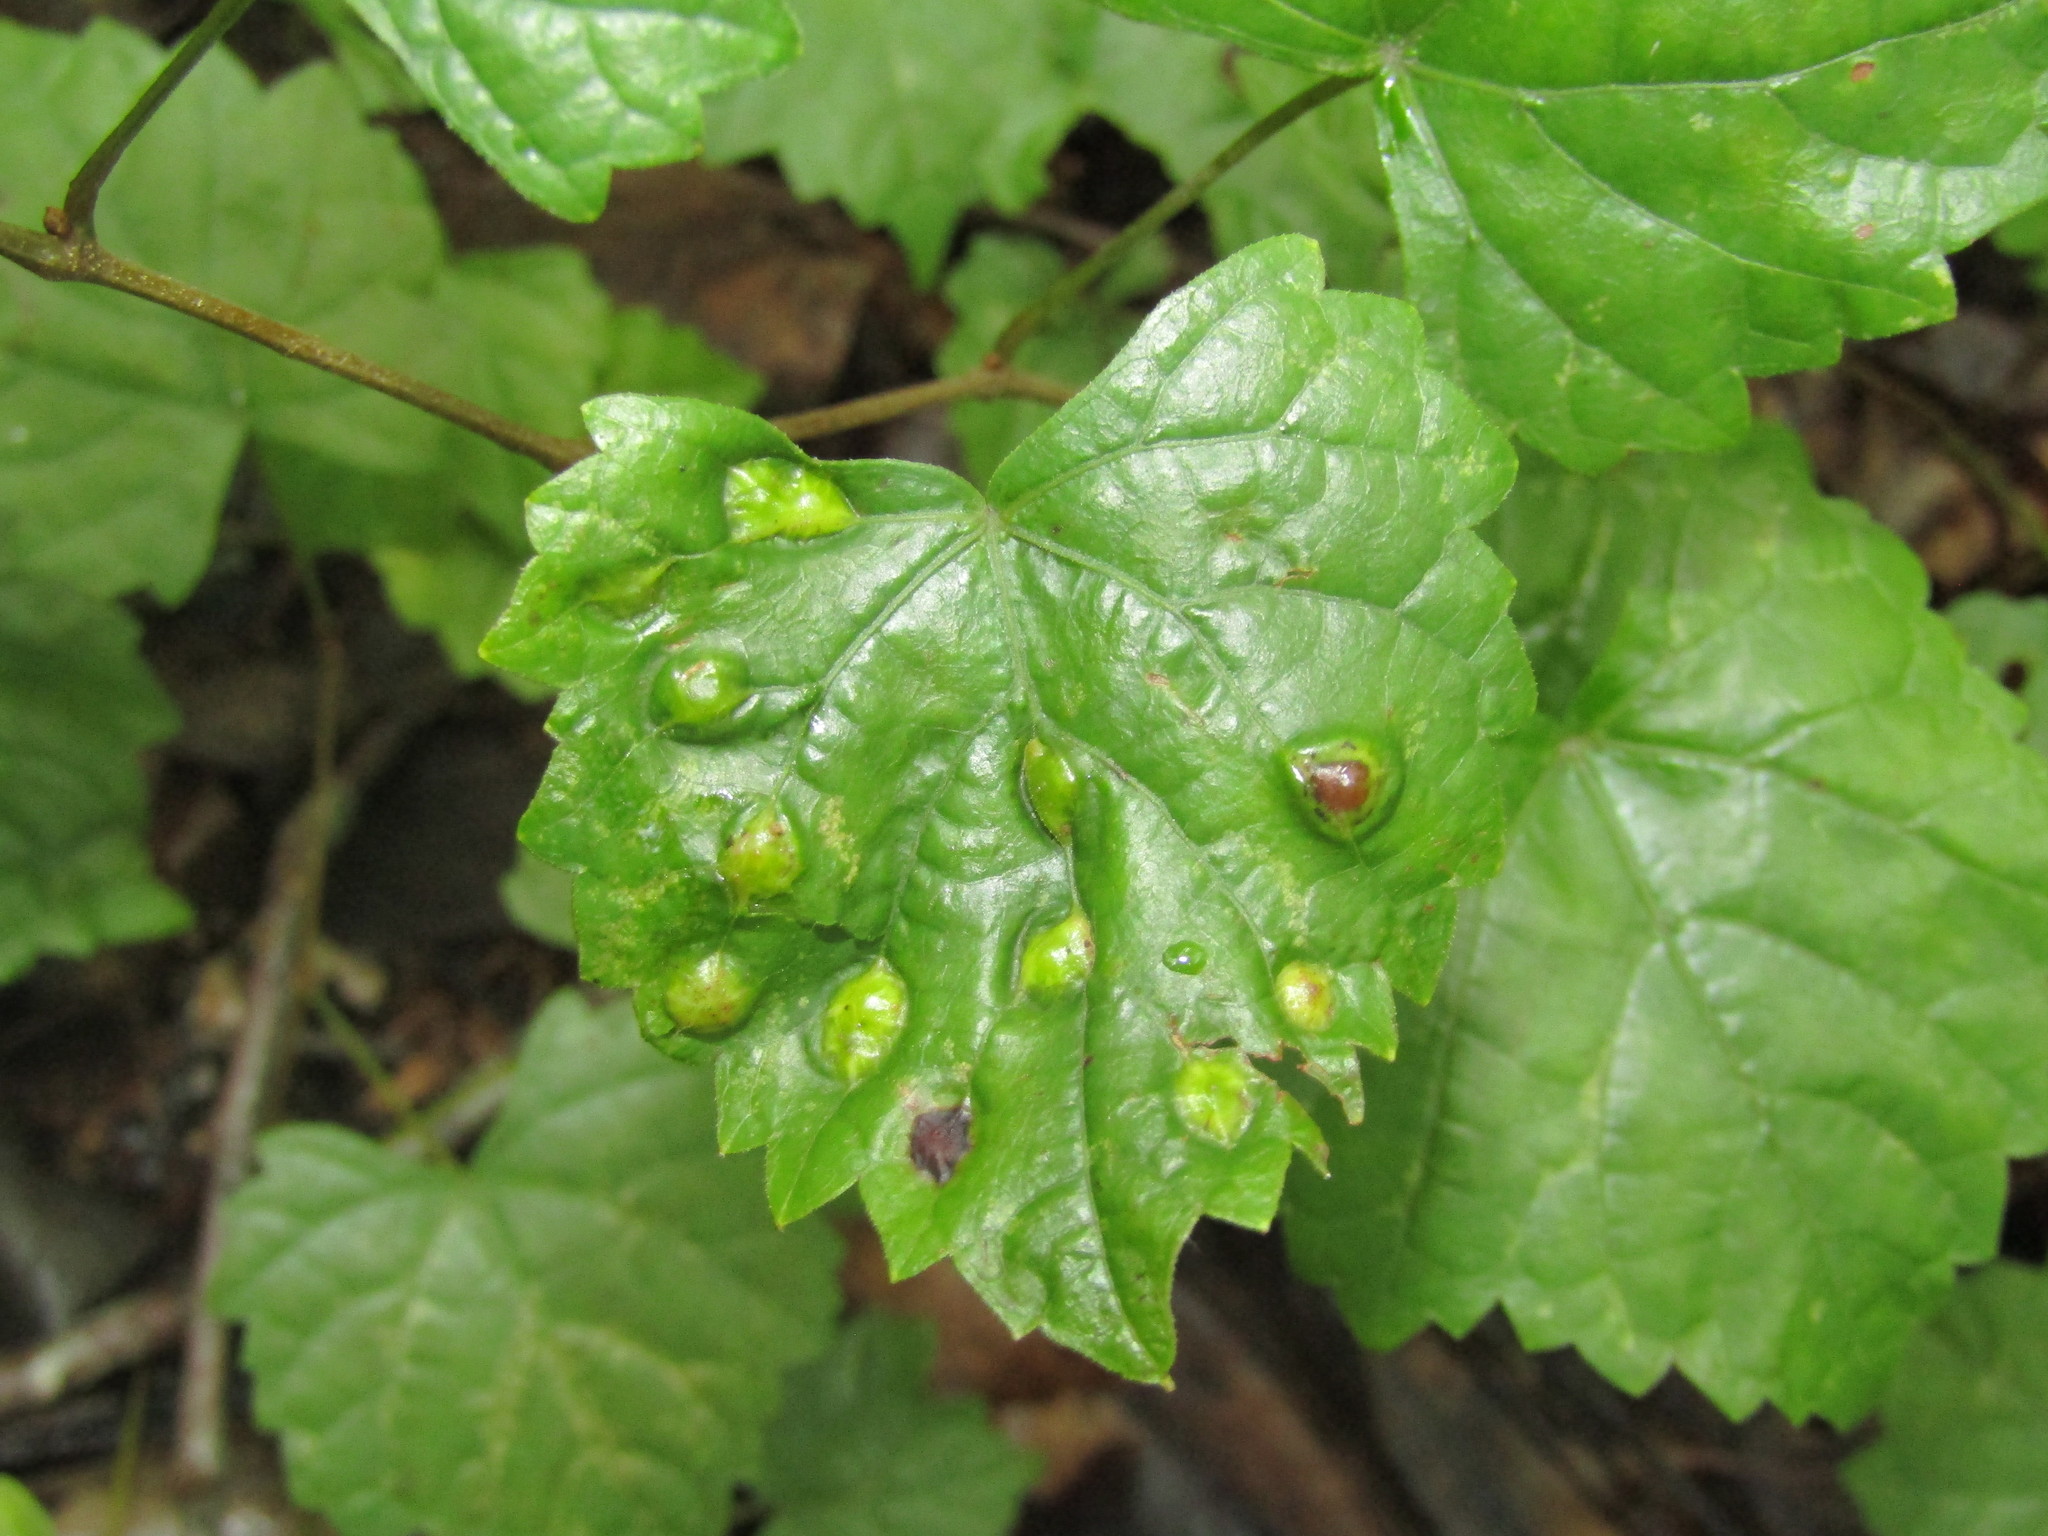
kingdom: Animalia
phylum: Arthropoda
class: Insecta
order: Diptera
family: Cecidomyiidae
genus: Vitisiella
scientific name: Vitisiella brevicauda
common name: Grape tumid gallmaker midge
